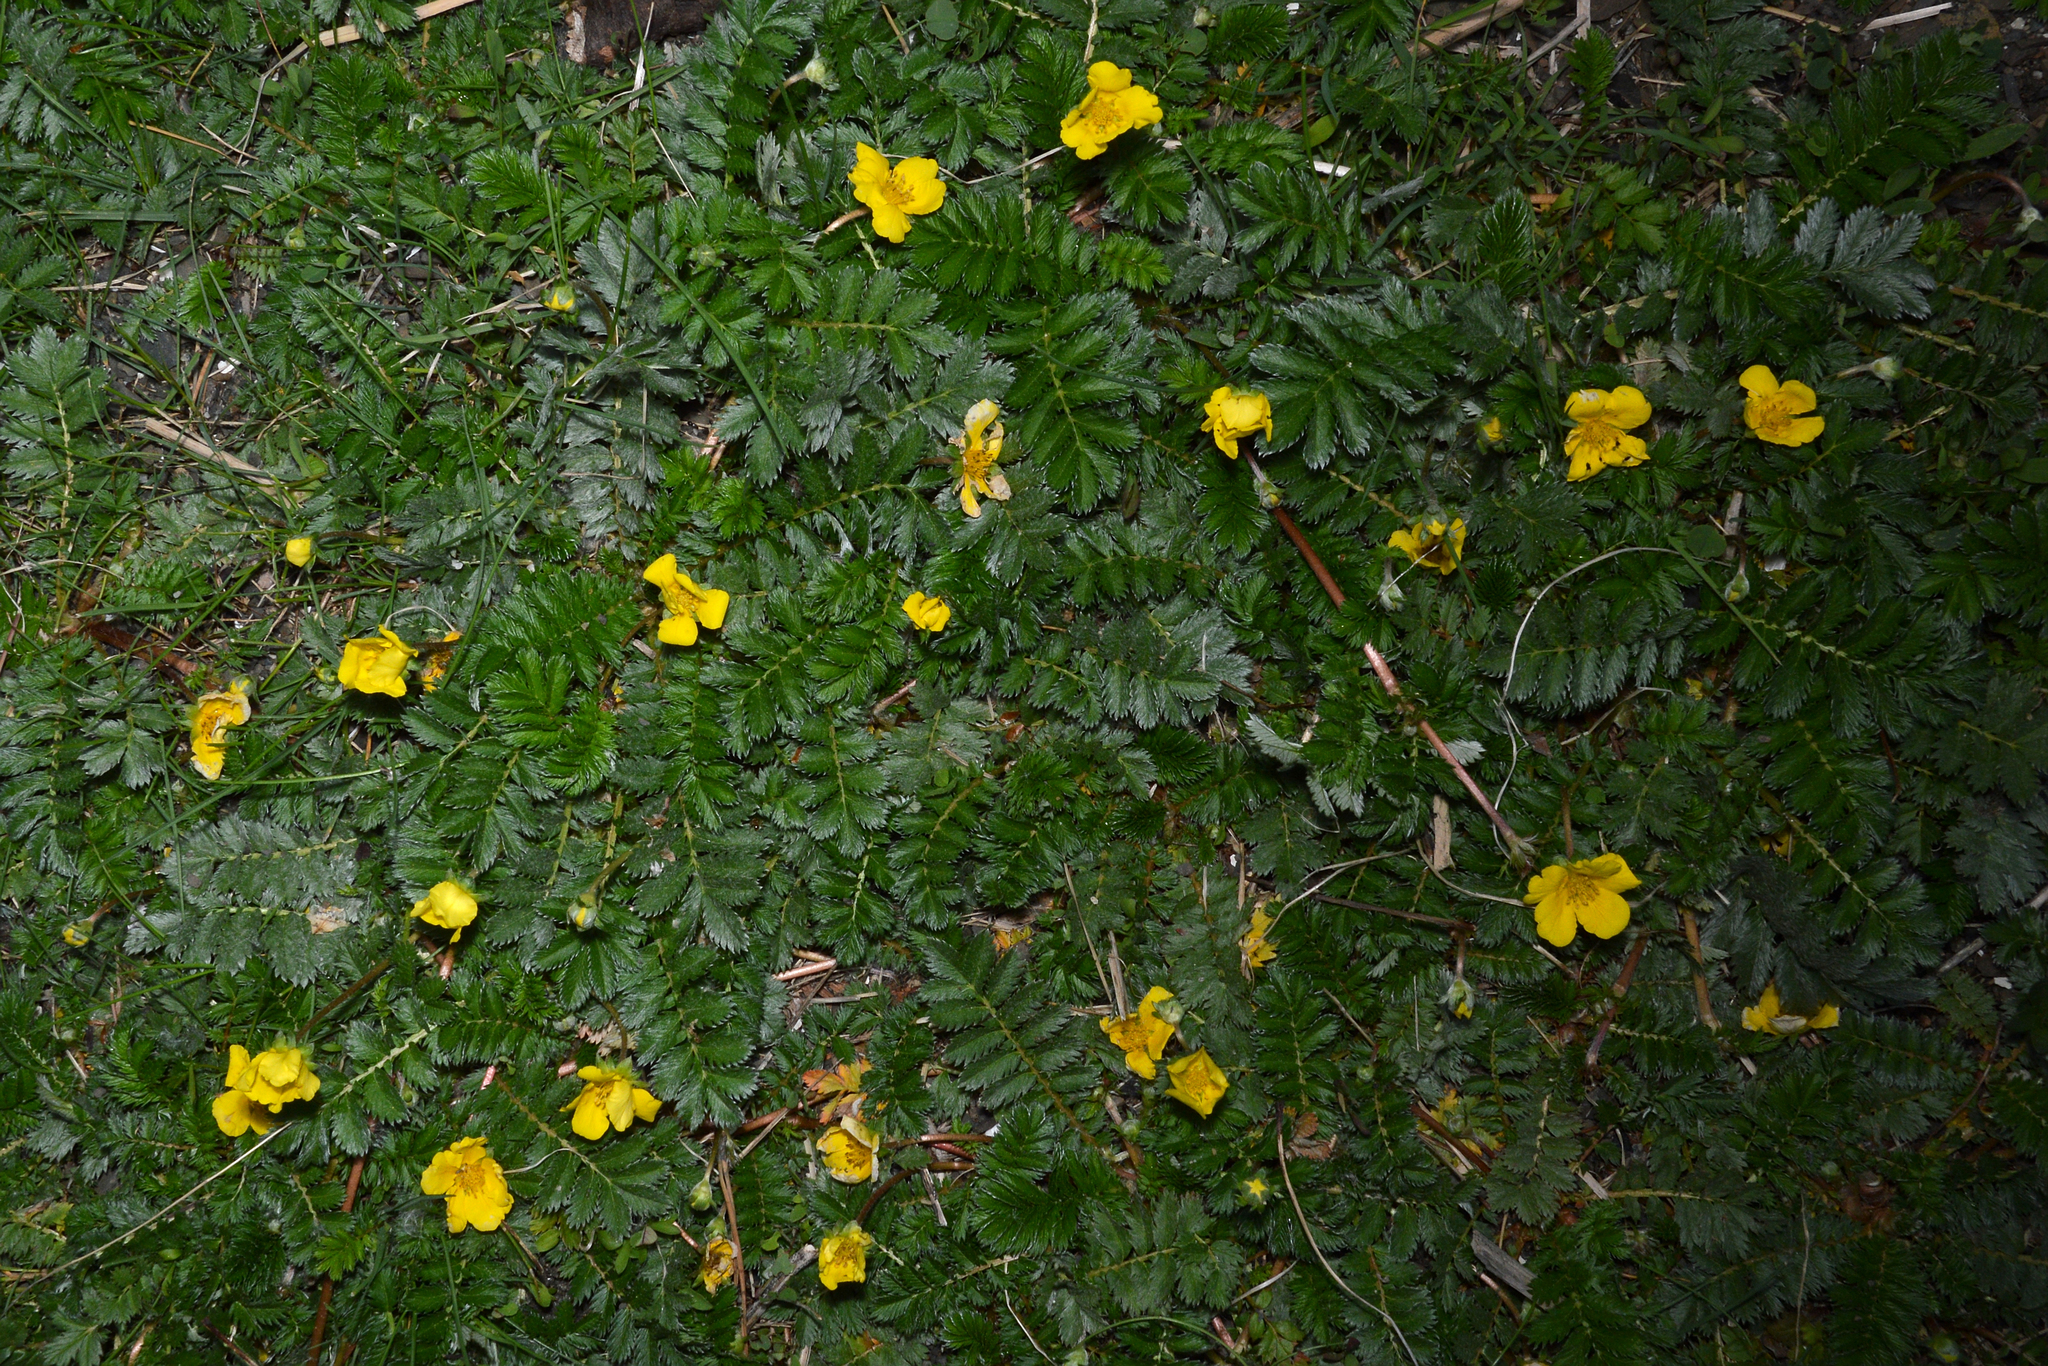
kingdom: Plantae
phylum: Tracheophyta
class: Magnoliopsida
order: Rosales
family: Rosaceae
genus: Argentina
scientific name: Argentina anserina
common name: Common silverweed
